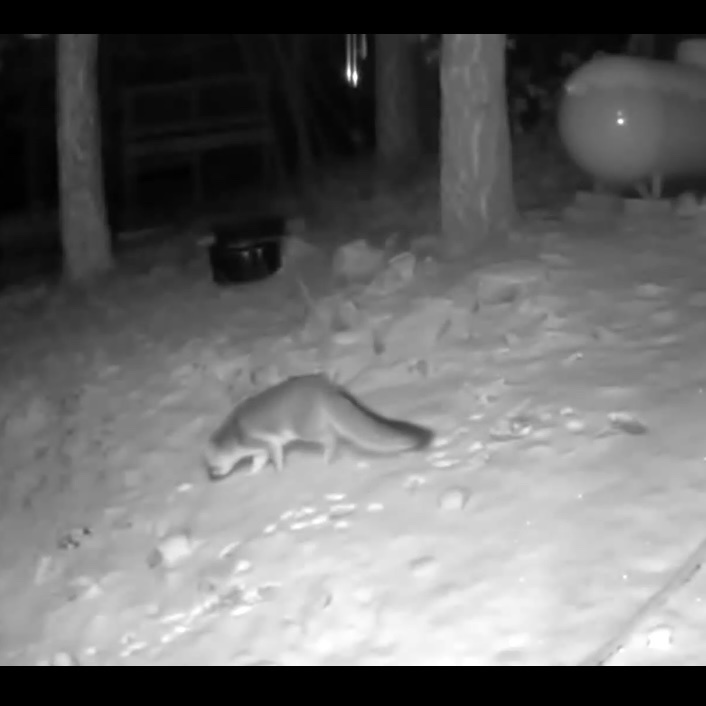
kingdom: Animalia
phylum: Chordata
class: Mammalia
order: Carnivora
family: Canidae
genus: Urocyon
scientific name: Urocyon cinereoargenteus
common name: Gray fox
